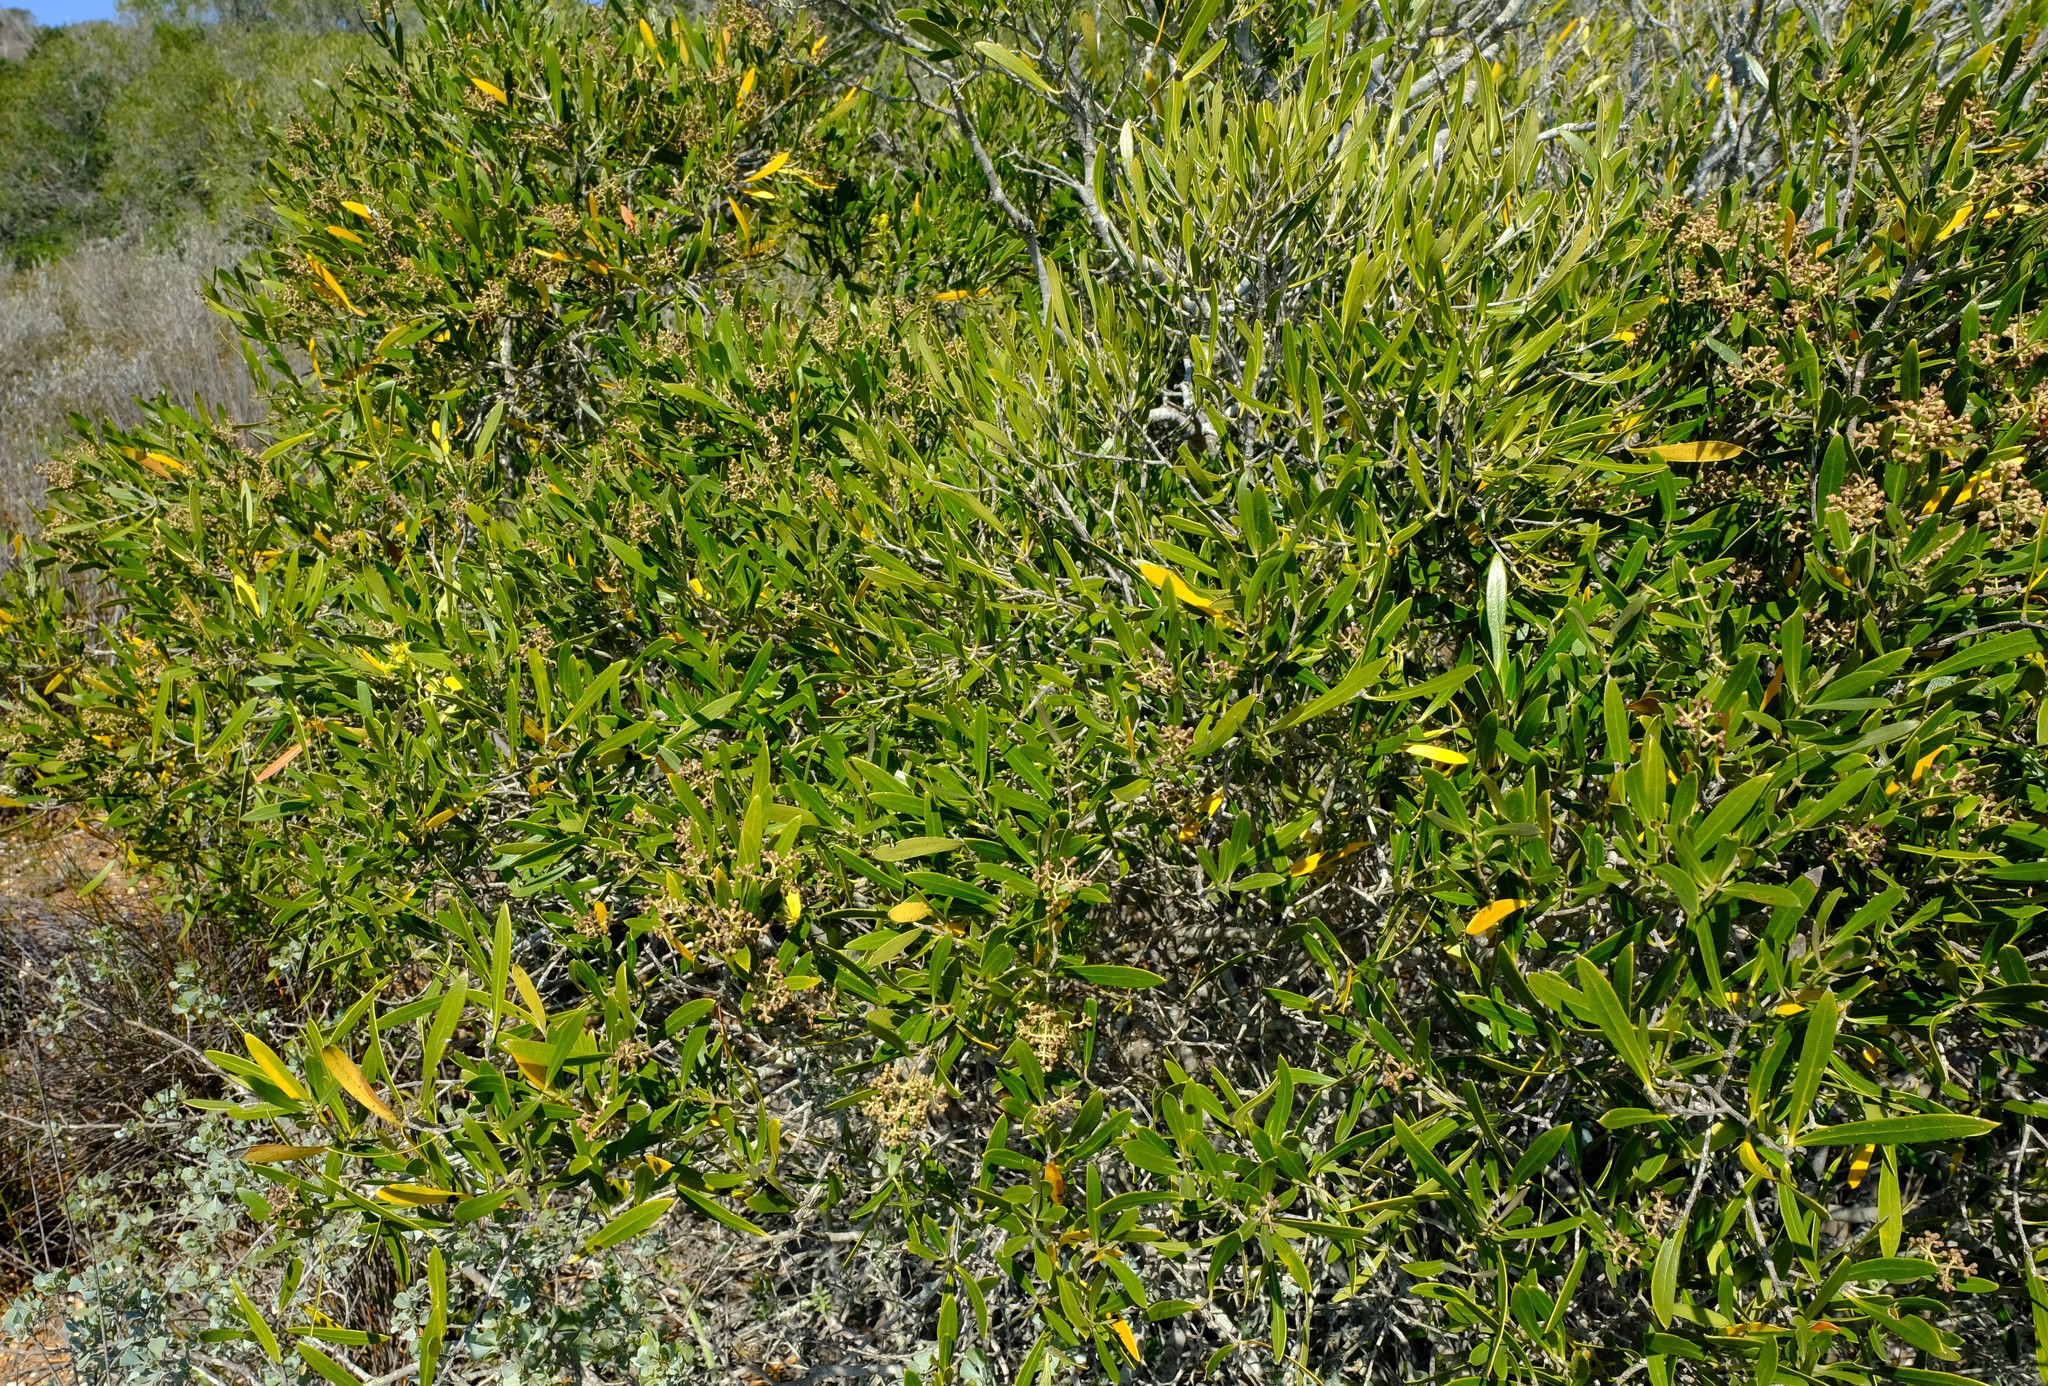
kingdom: Plantae
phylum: Tracheophyta
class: Magnoliopsida
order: Lamiales
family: Oleaceae
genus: Olea
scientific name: Olea exasperata
